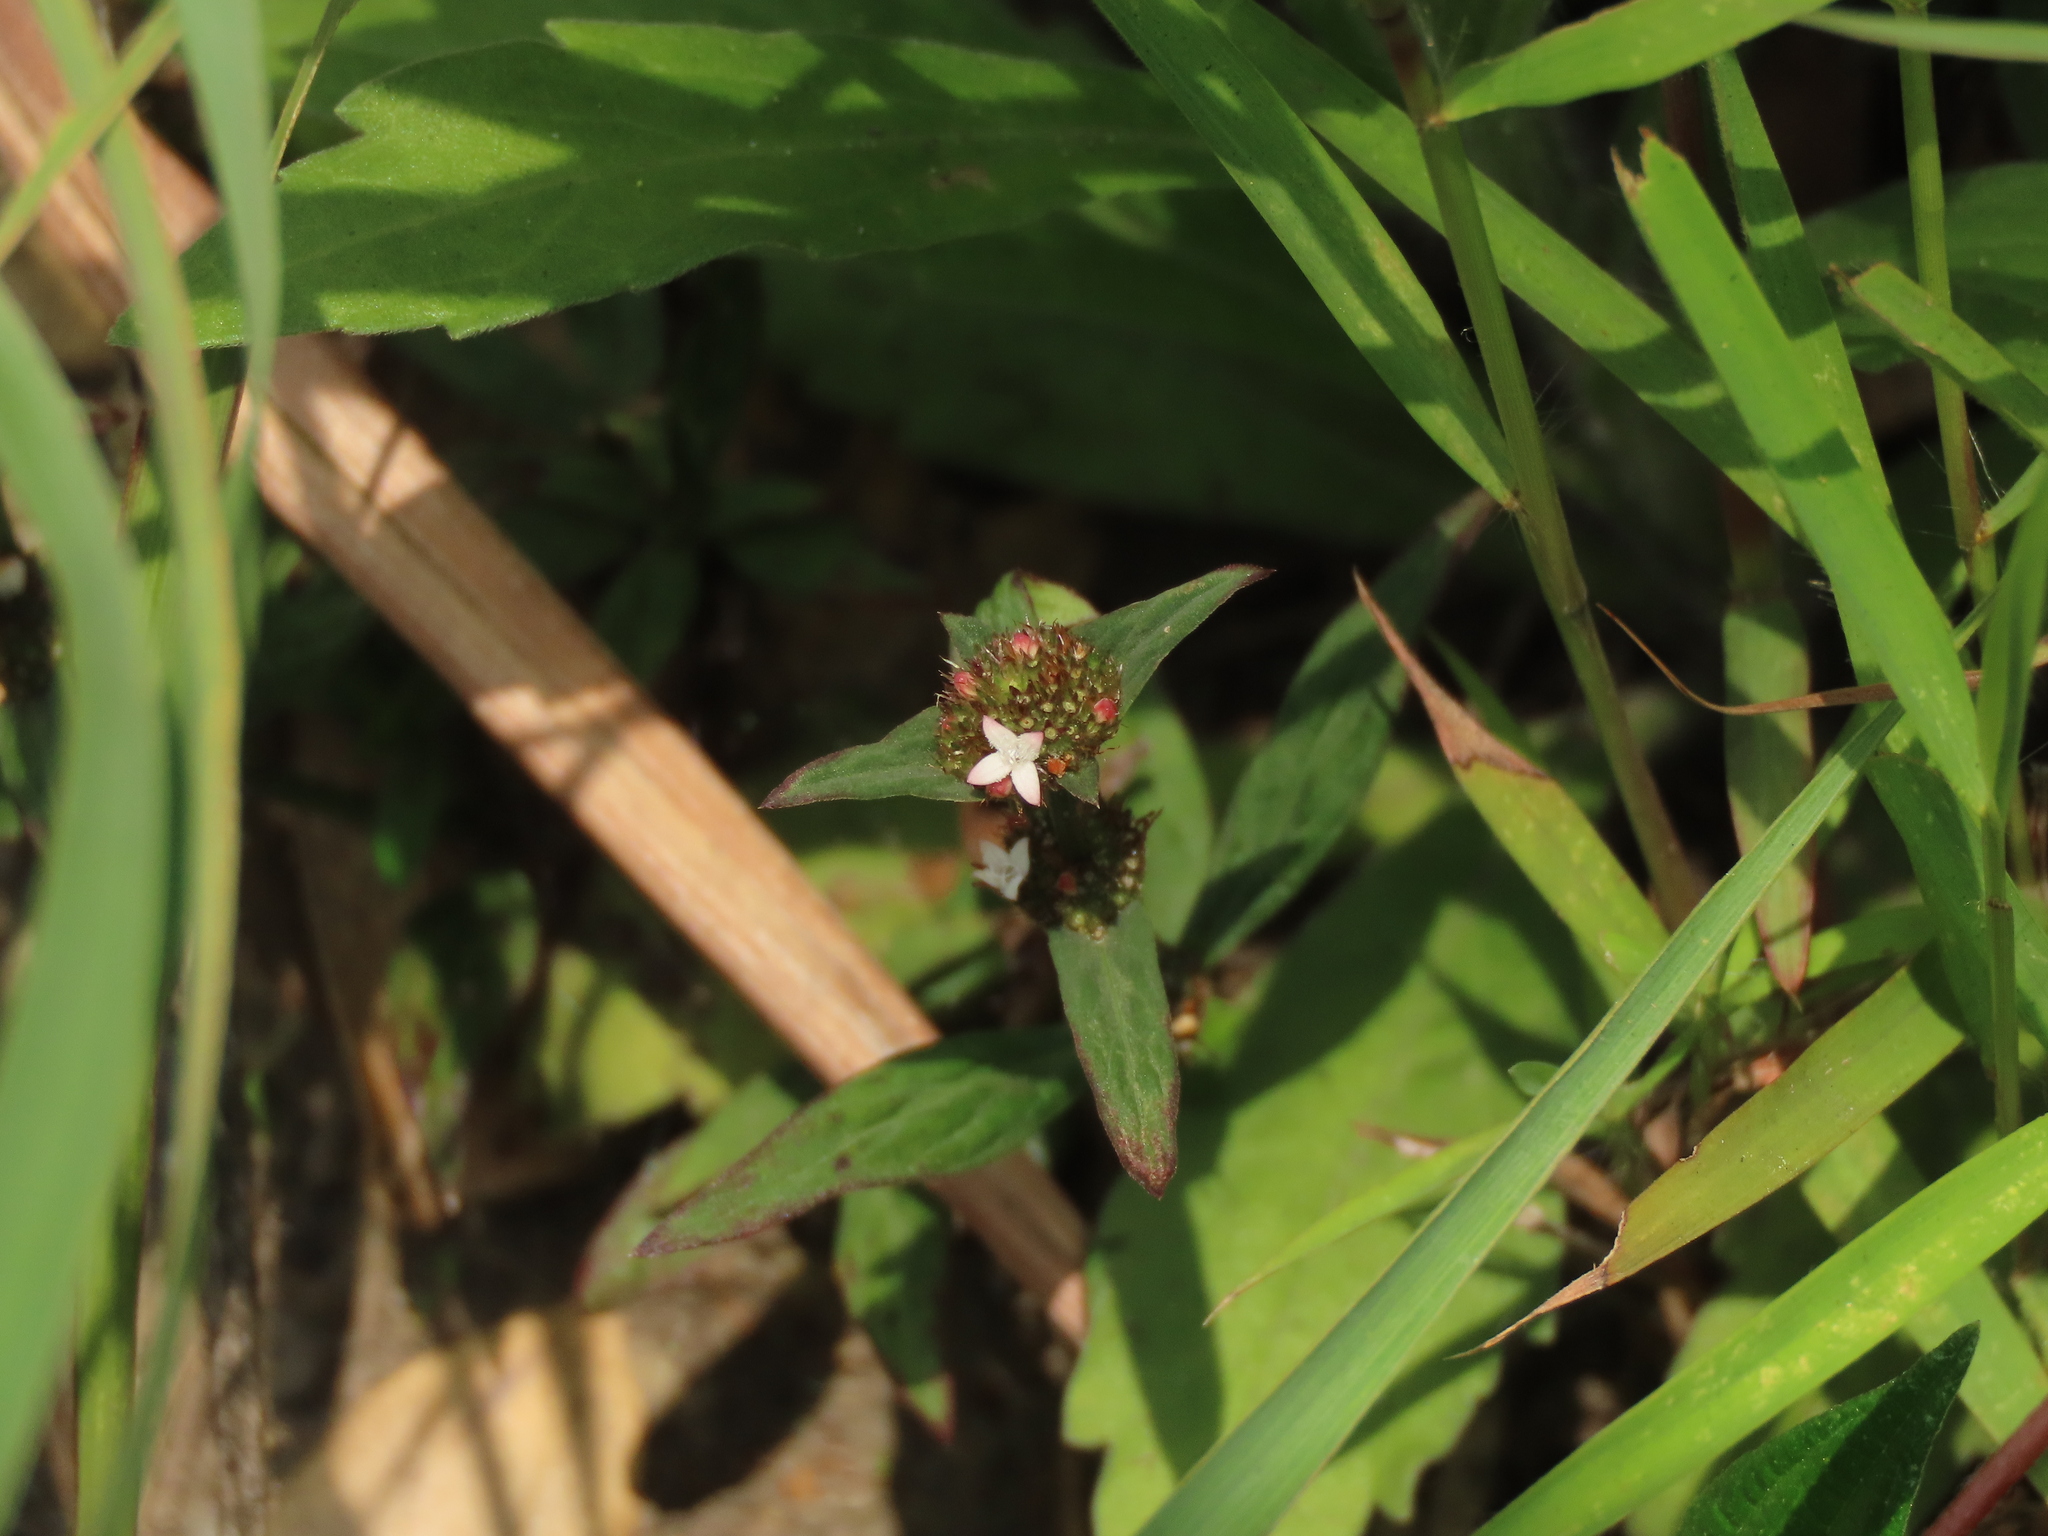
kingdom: Plantae
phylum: Tracheophyta
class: Magnoliopsida
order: Gentianales
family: Rubiaceae
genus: Spermacoce
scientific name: Spermacoce remota
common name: Woodland false buttonweed
